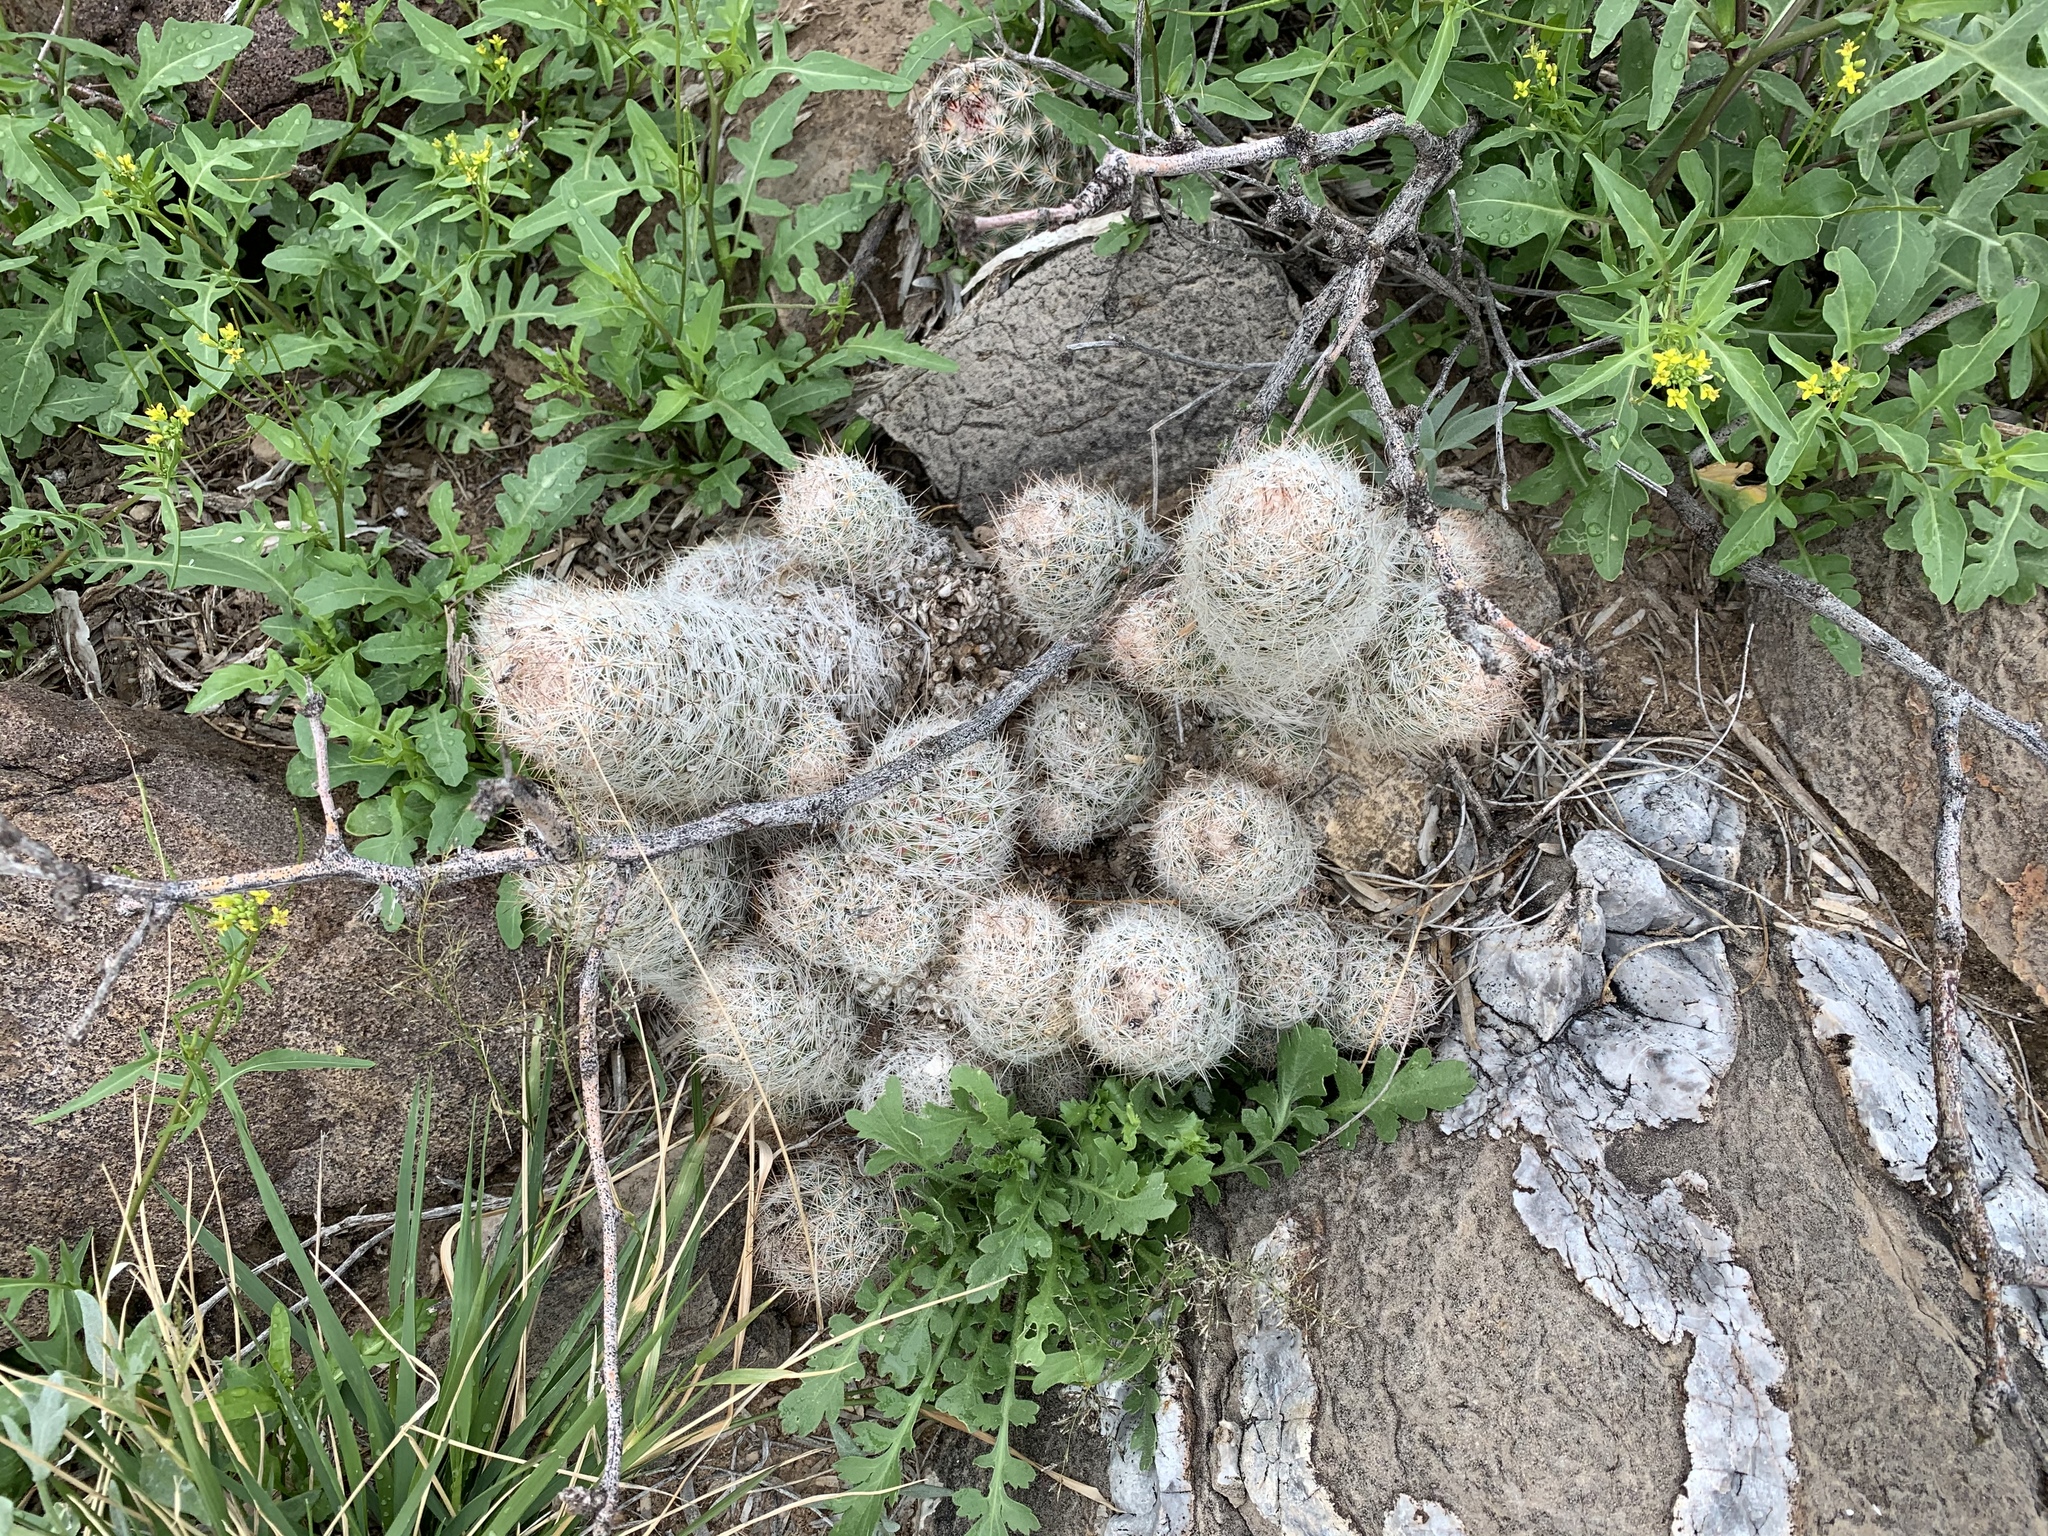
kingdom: Plantae
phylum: Tracheophyta
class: Magnoliopsida
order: Caryophyllales
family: Cactaceae
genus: Pelecyphora
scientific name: Pelecyphora tuberculosa
